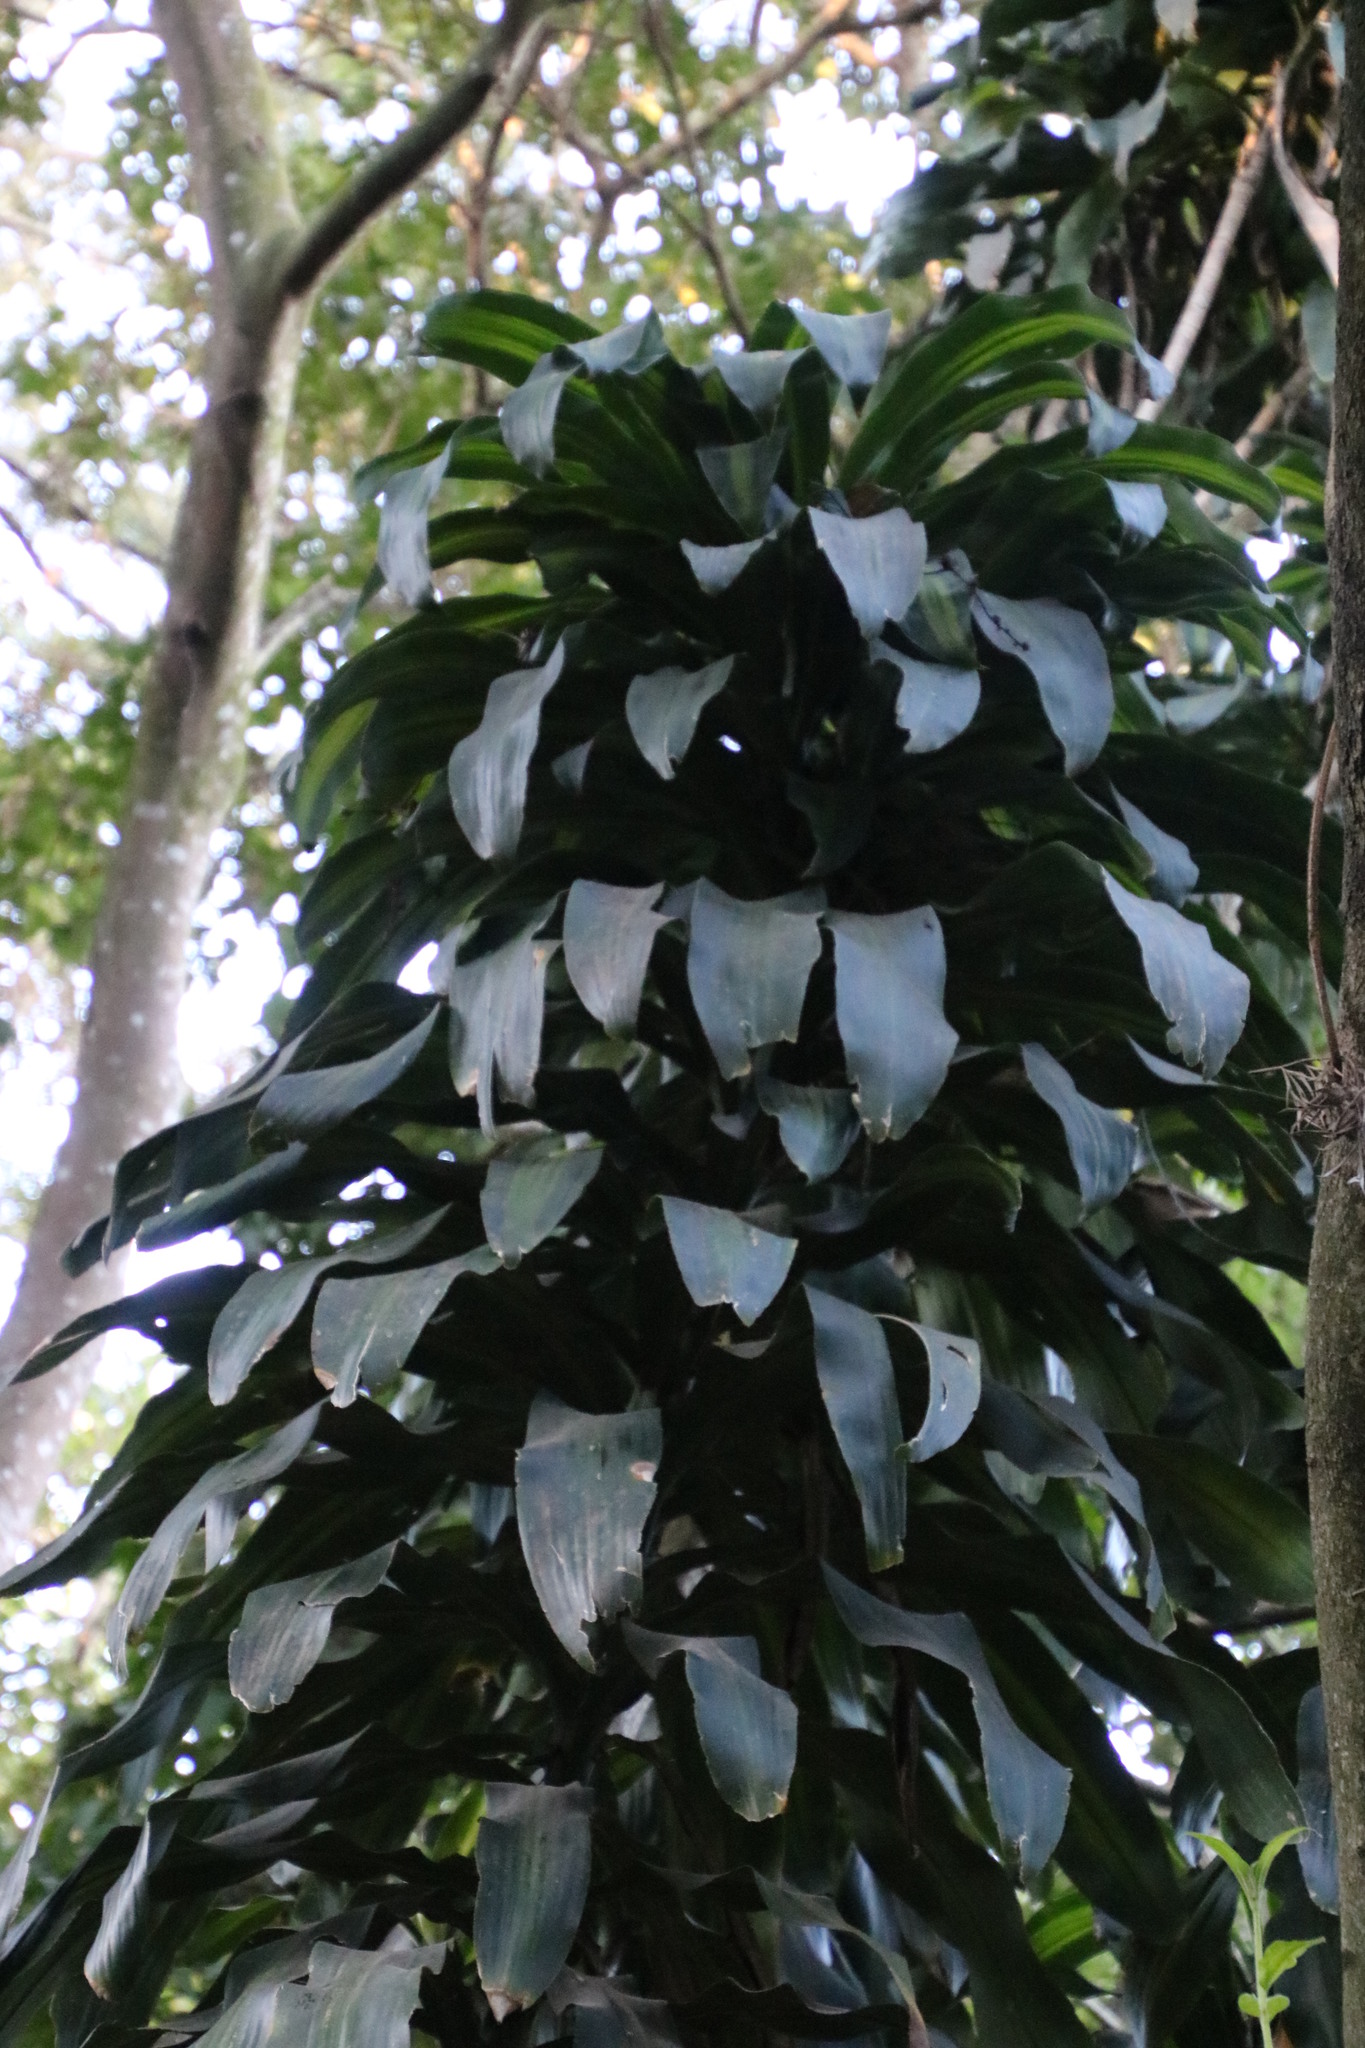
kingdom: Plantae
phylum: Tracheophyta
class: Liliopsida
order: Asparagales
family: Asparagaceae
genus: Dracaena
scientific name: Dracaena fragrans
